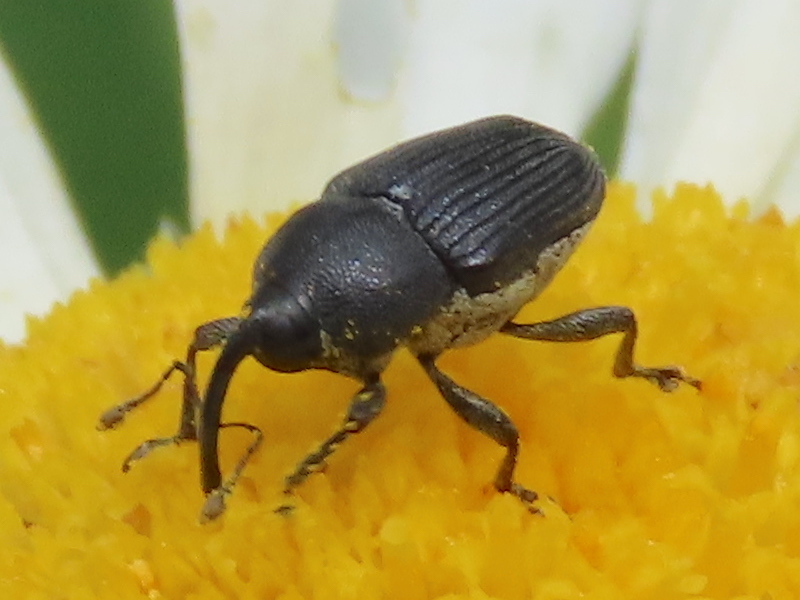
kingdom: Animalia
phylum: Arthropoda
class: Insecta
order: Coleoptera
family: Curculionidae
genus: Odontocorynus
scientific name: Odontocorynus salebrosus
